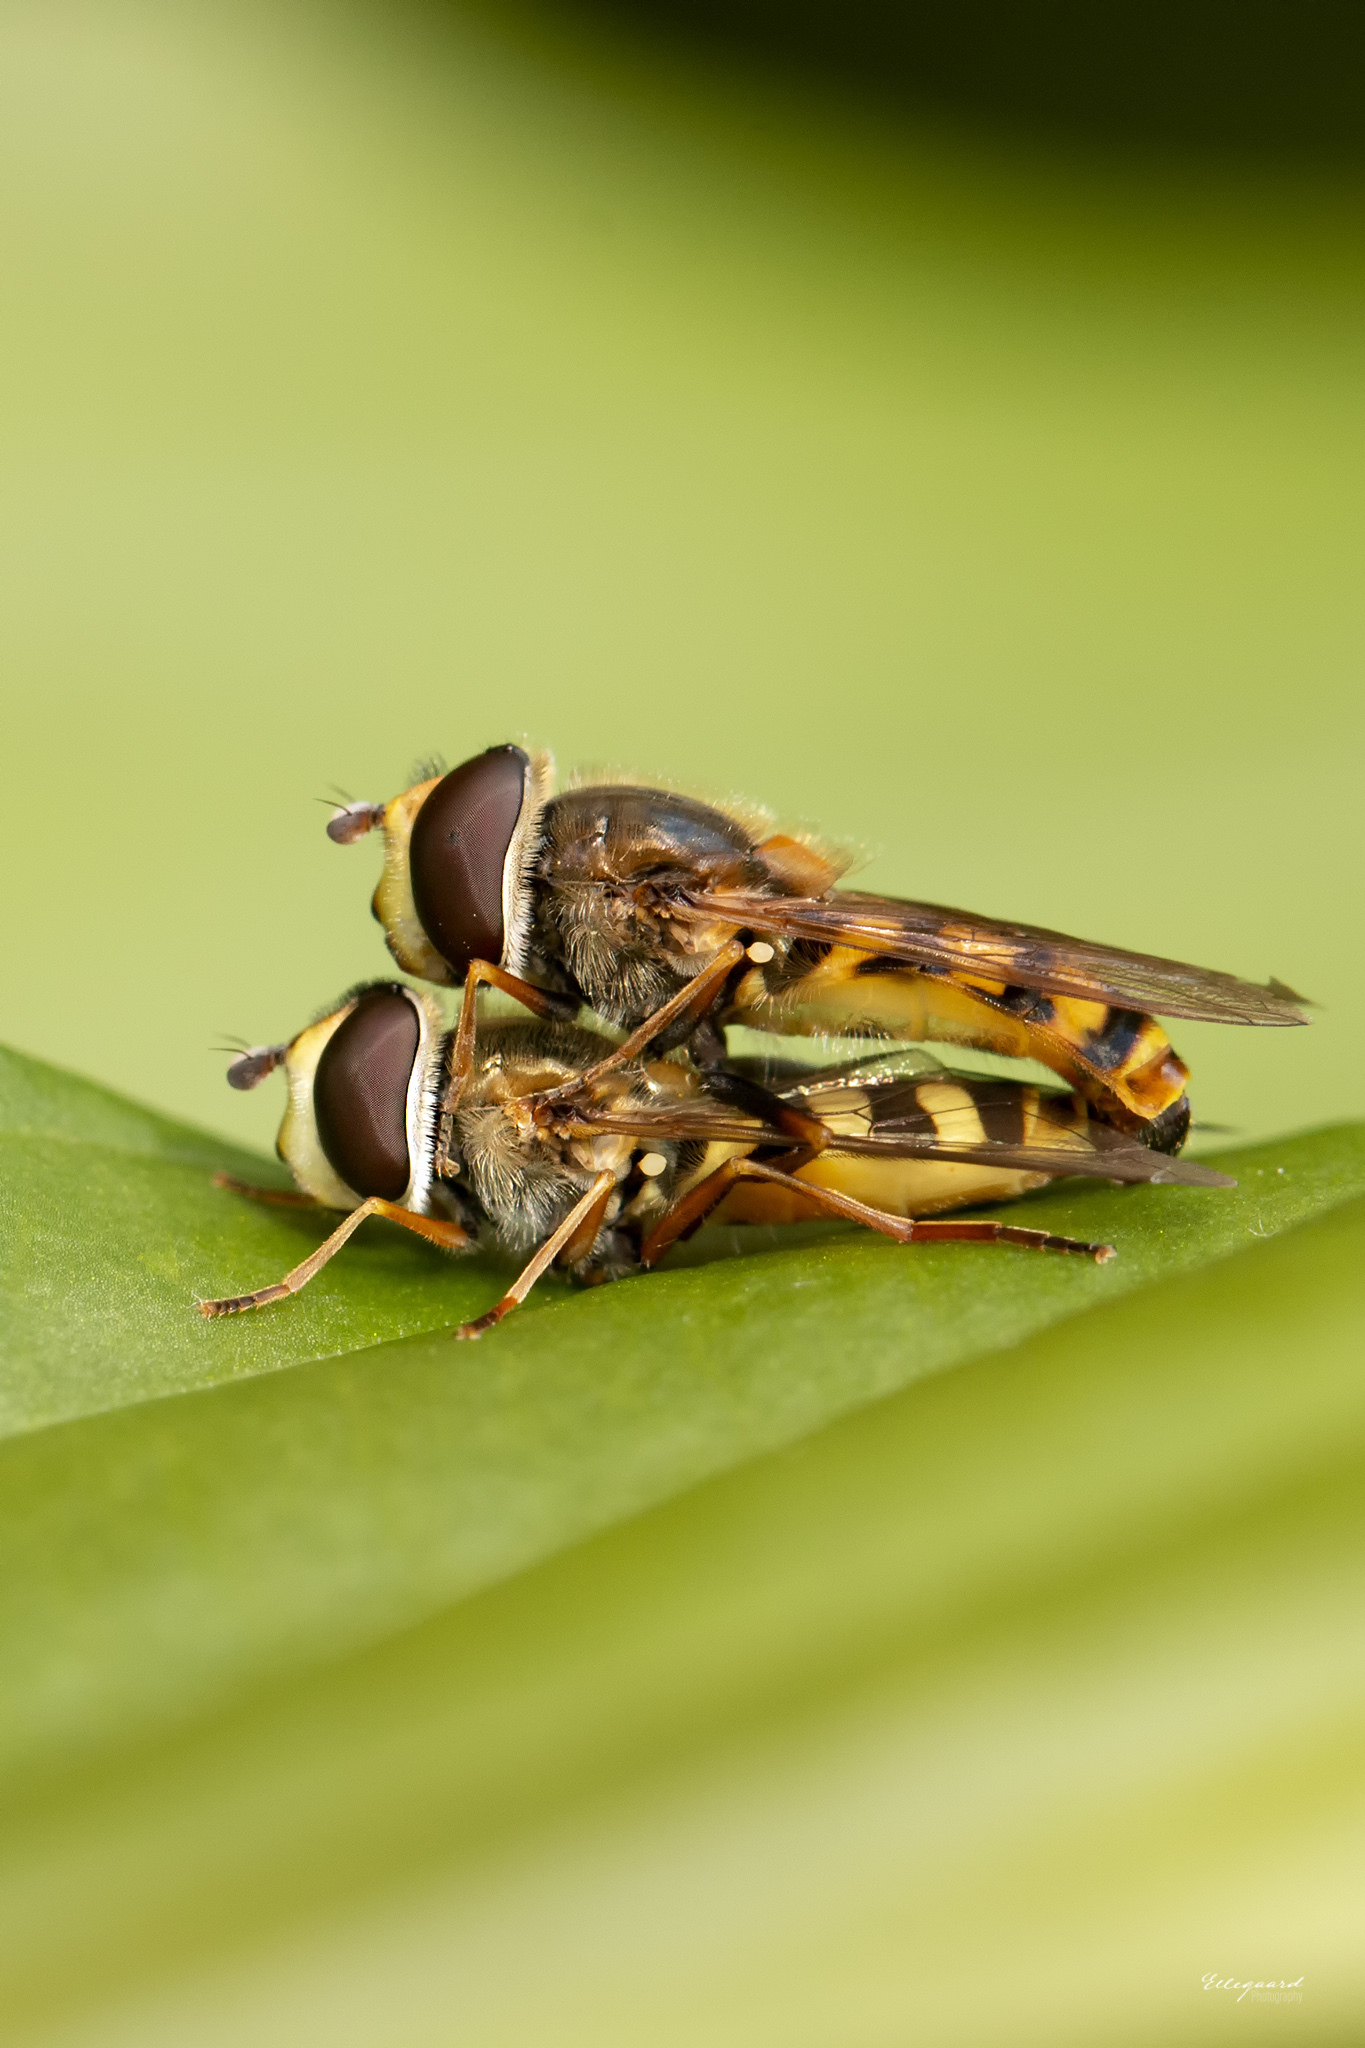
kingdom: Animalia
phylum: Arthropoda
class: Insecta
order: Diptera
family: Syrphidae
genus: Eupeodes
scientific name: Eupeodes corollae
